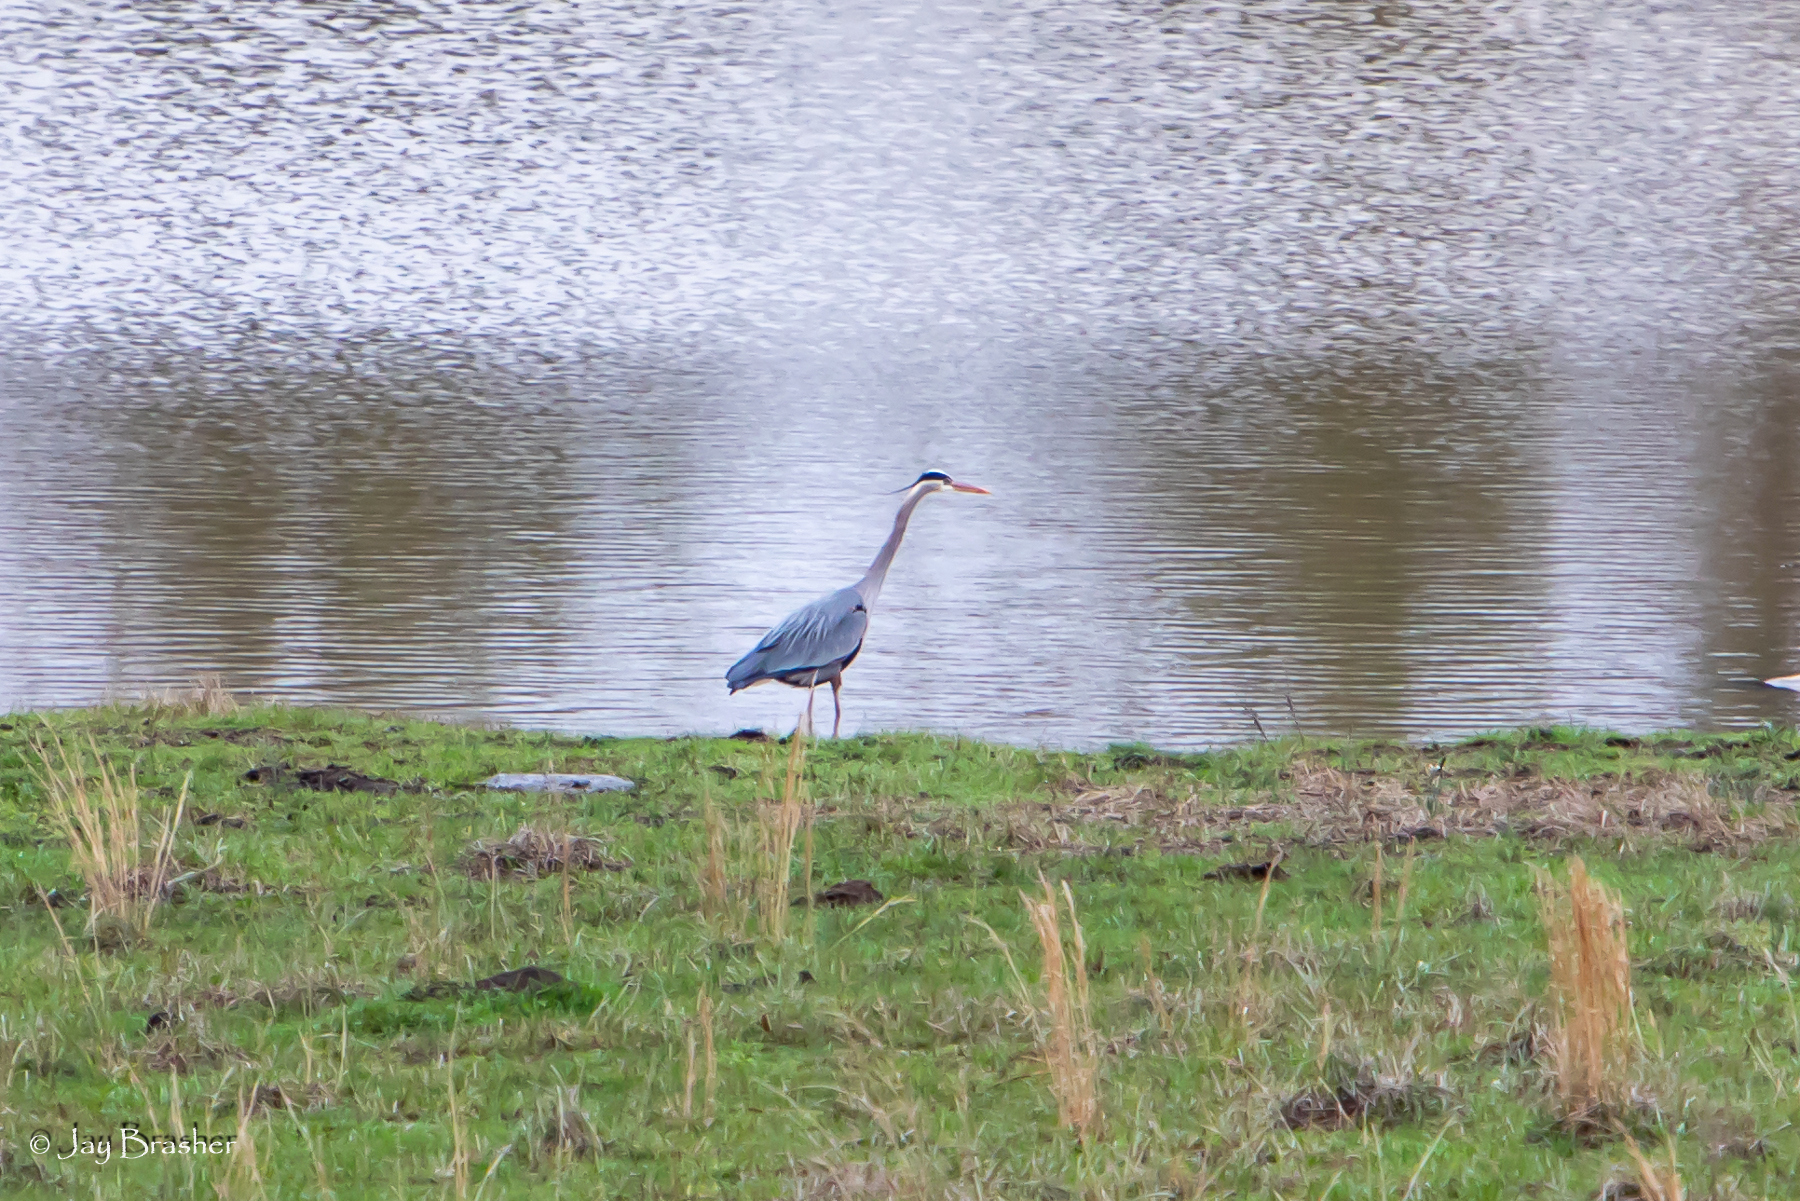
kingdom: Animalia
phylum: Chordata
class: Aves
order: Pelecaniformes
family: Ardeidae
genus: Ardea
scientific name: Ardea herodias
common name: Great blue heron
